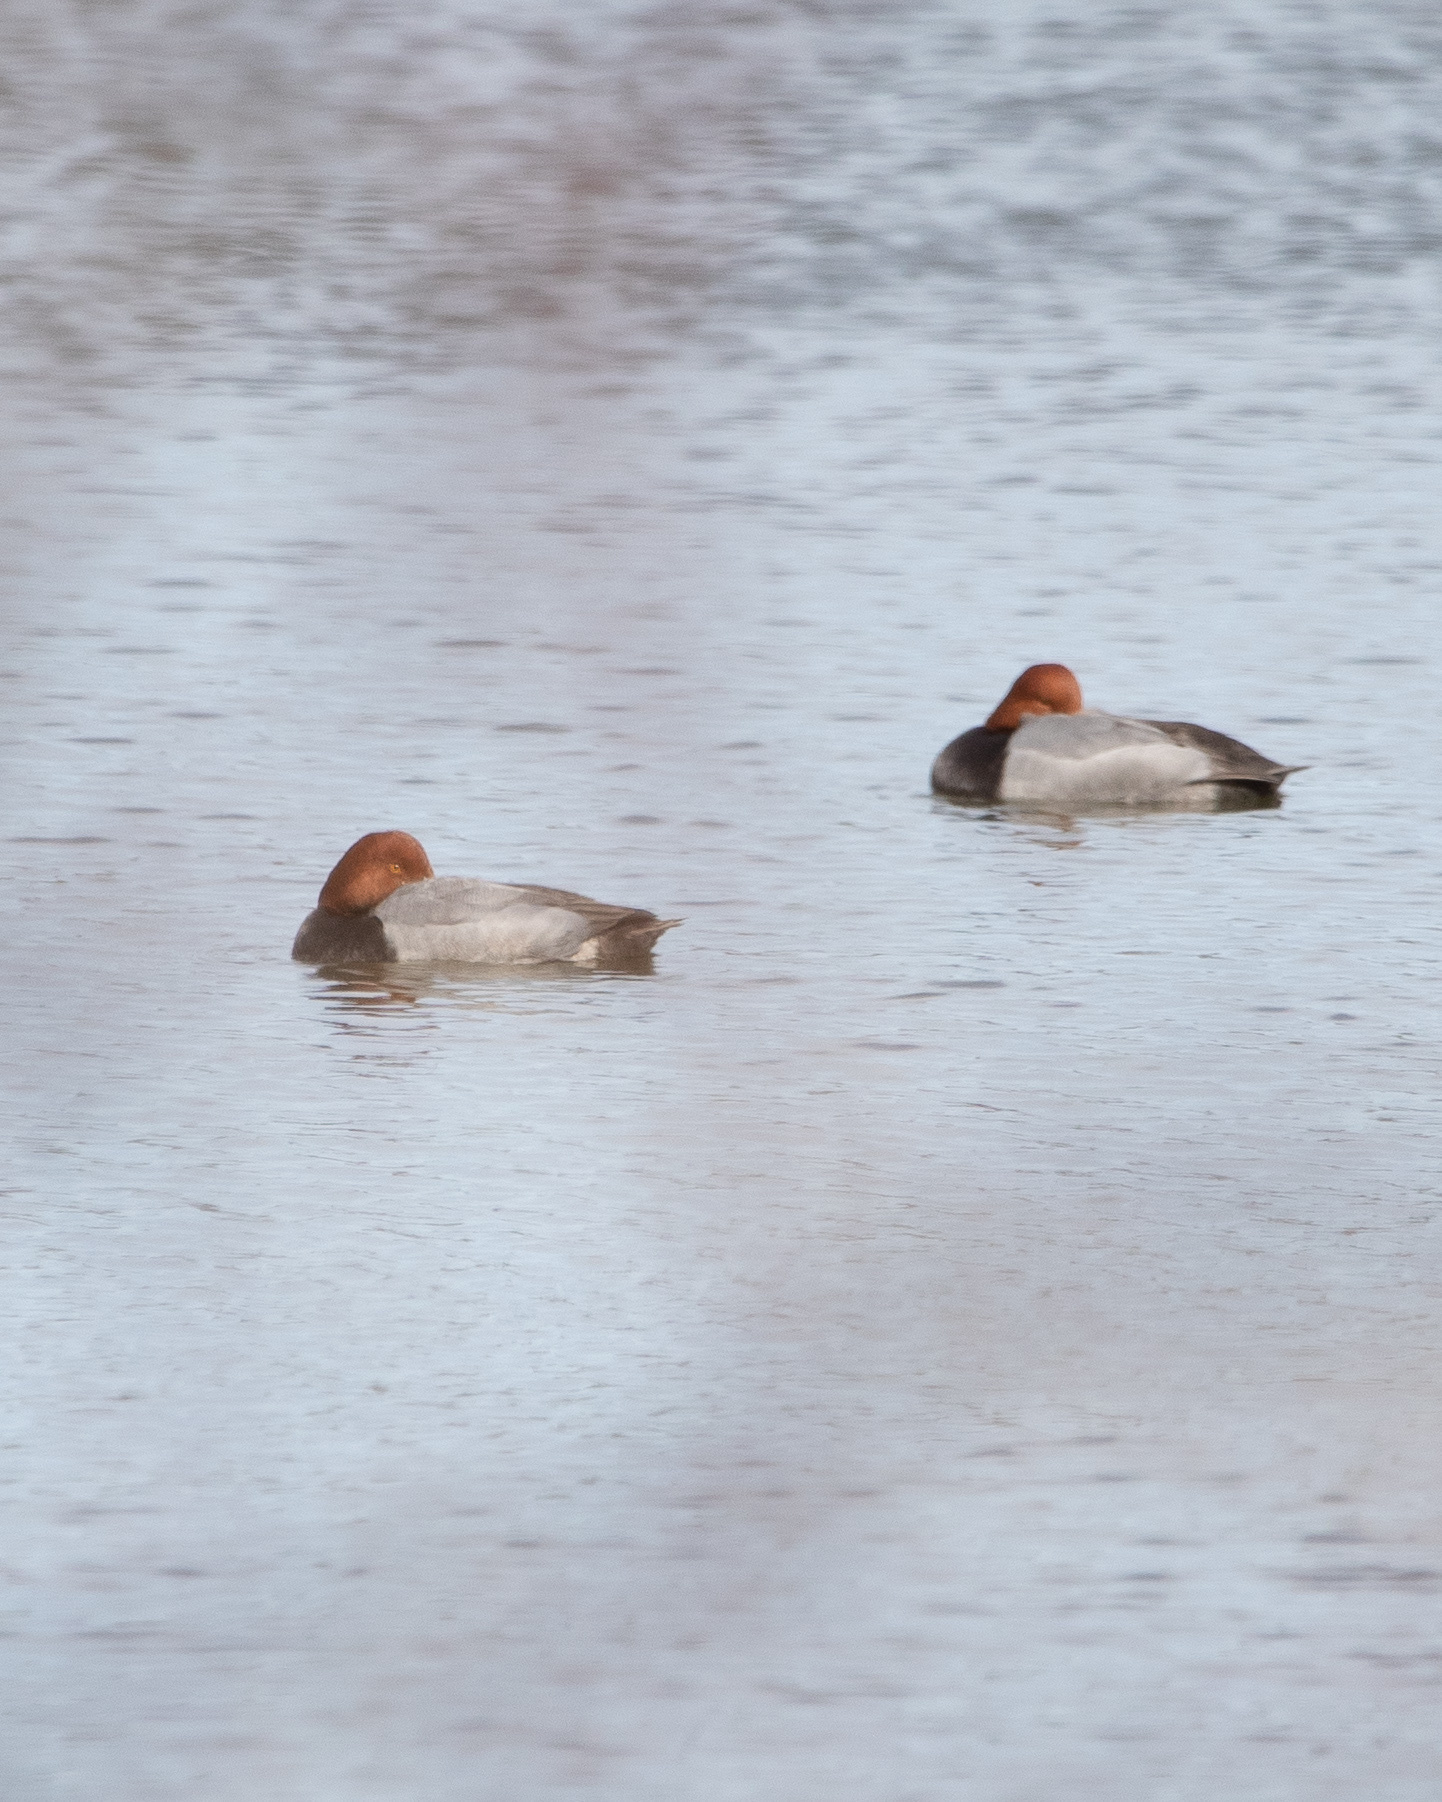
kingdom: Animalia
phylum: Chordata
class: Aves
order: Anseriformes
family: Anatidae
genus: Aythya
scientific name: Aythya americana
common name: Redhead
